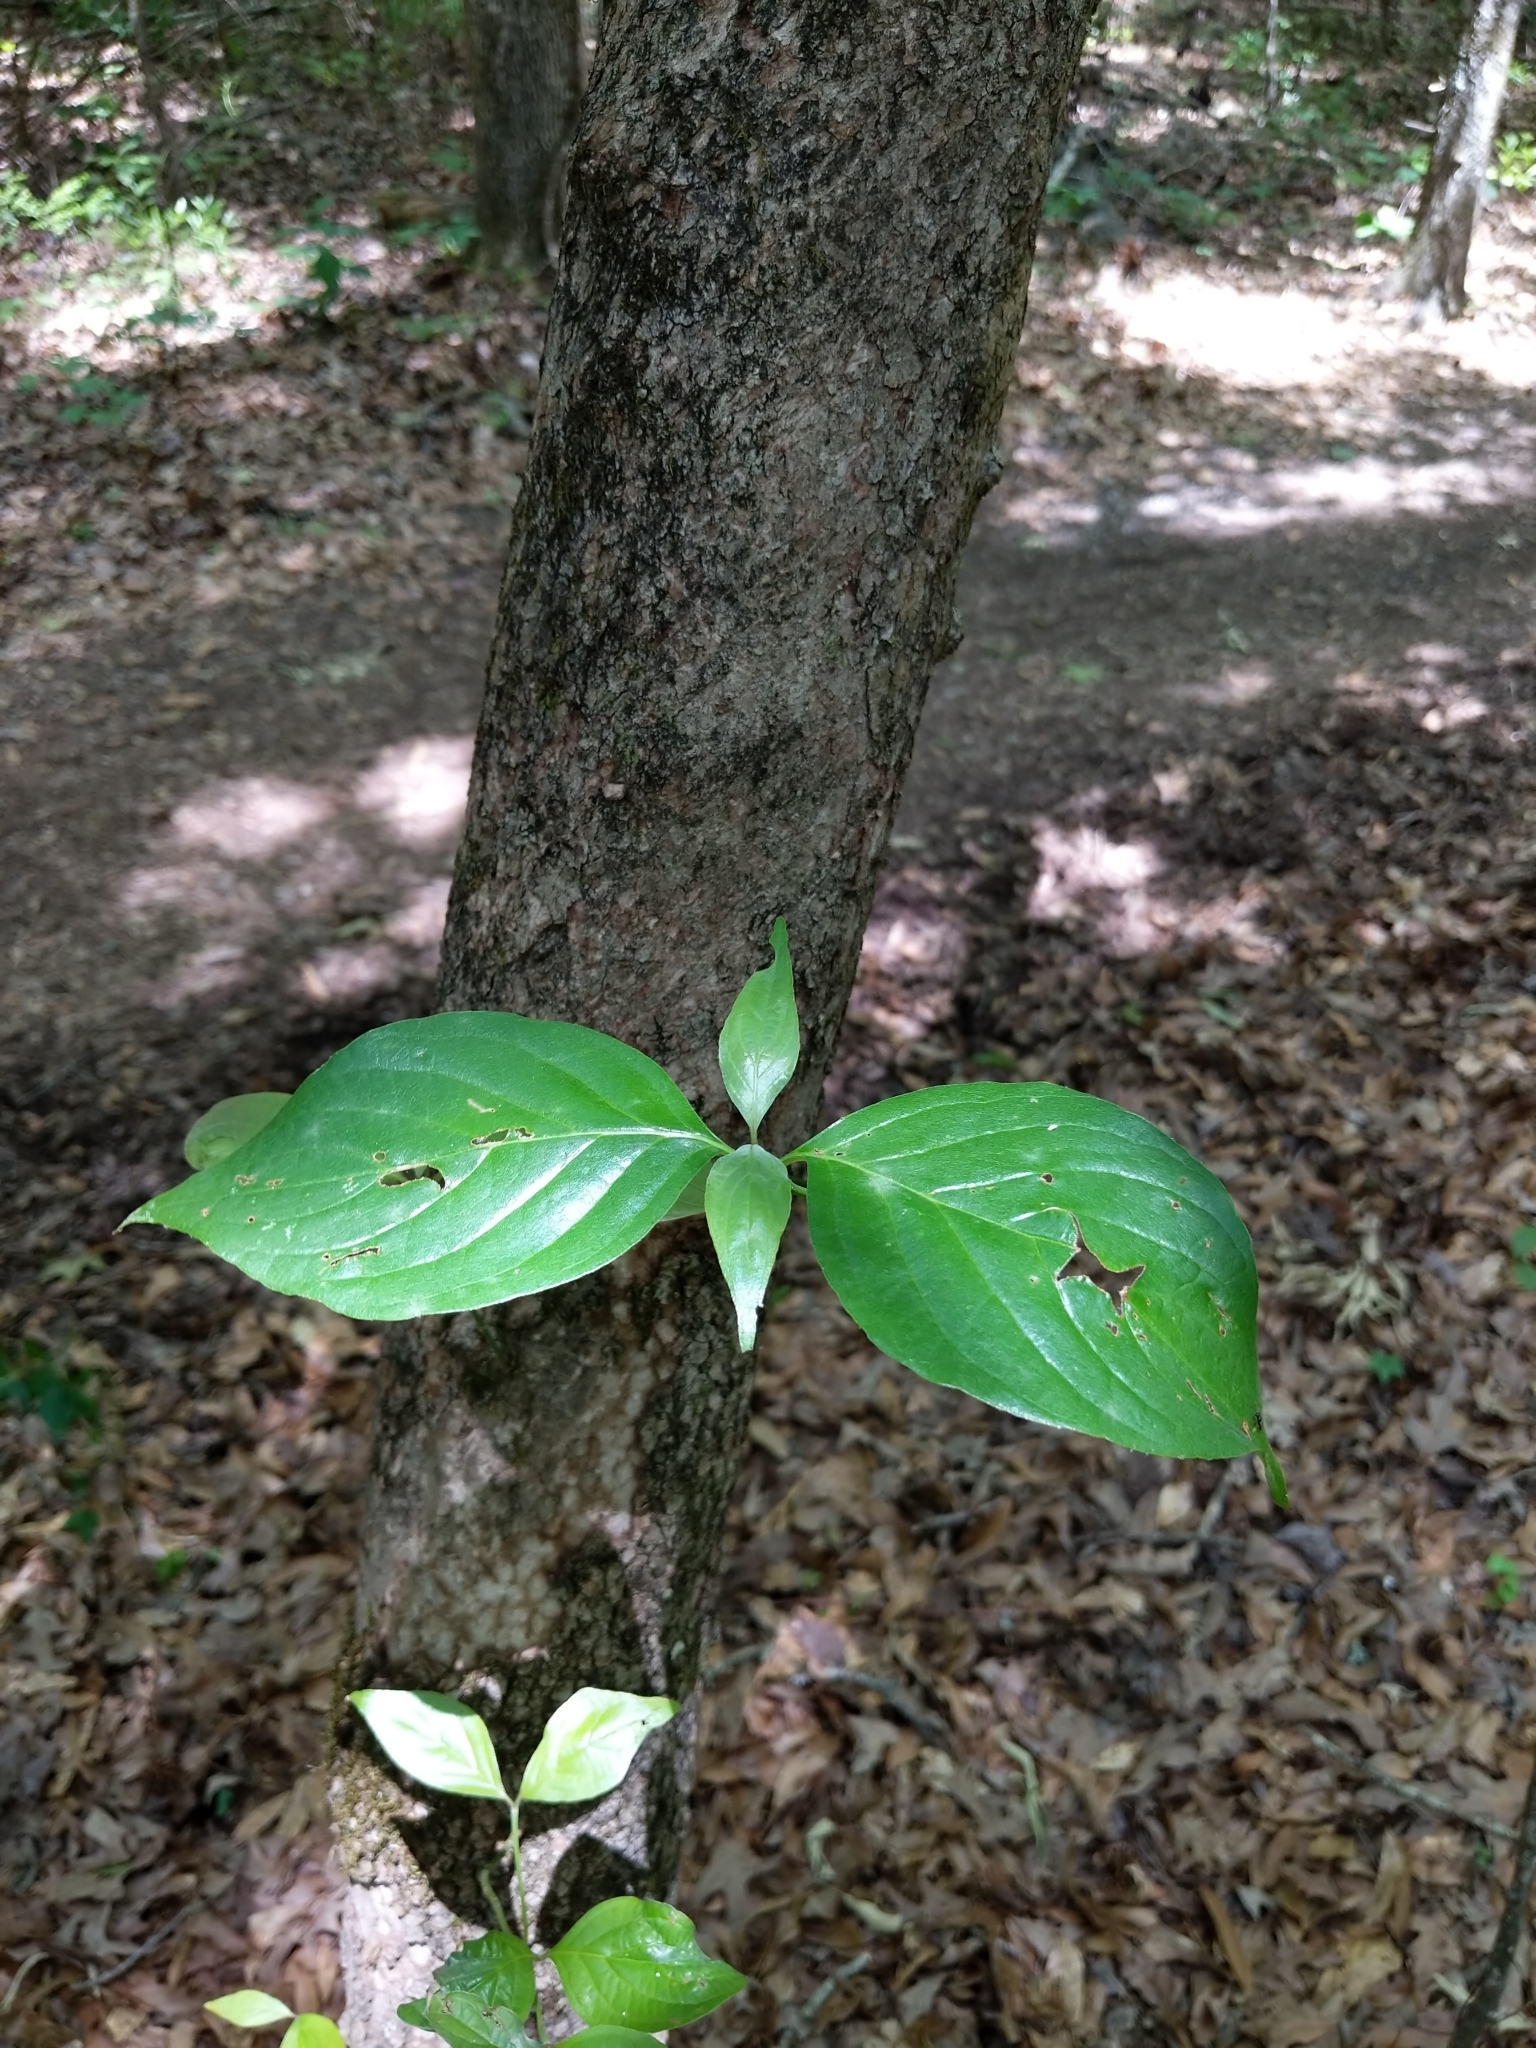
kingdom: Plantae
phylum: Tracheophyta
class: Magnoliopsida
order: Cornales
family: Cornaceae
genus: Cornus
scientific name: Cornus florida
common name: Flowering dogwood
